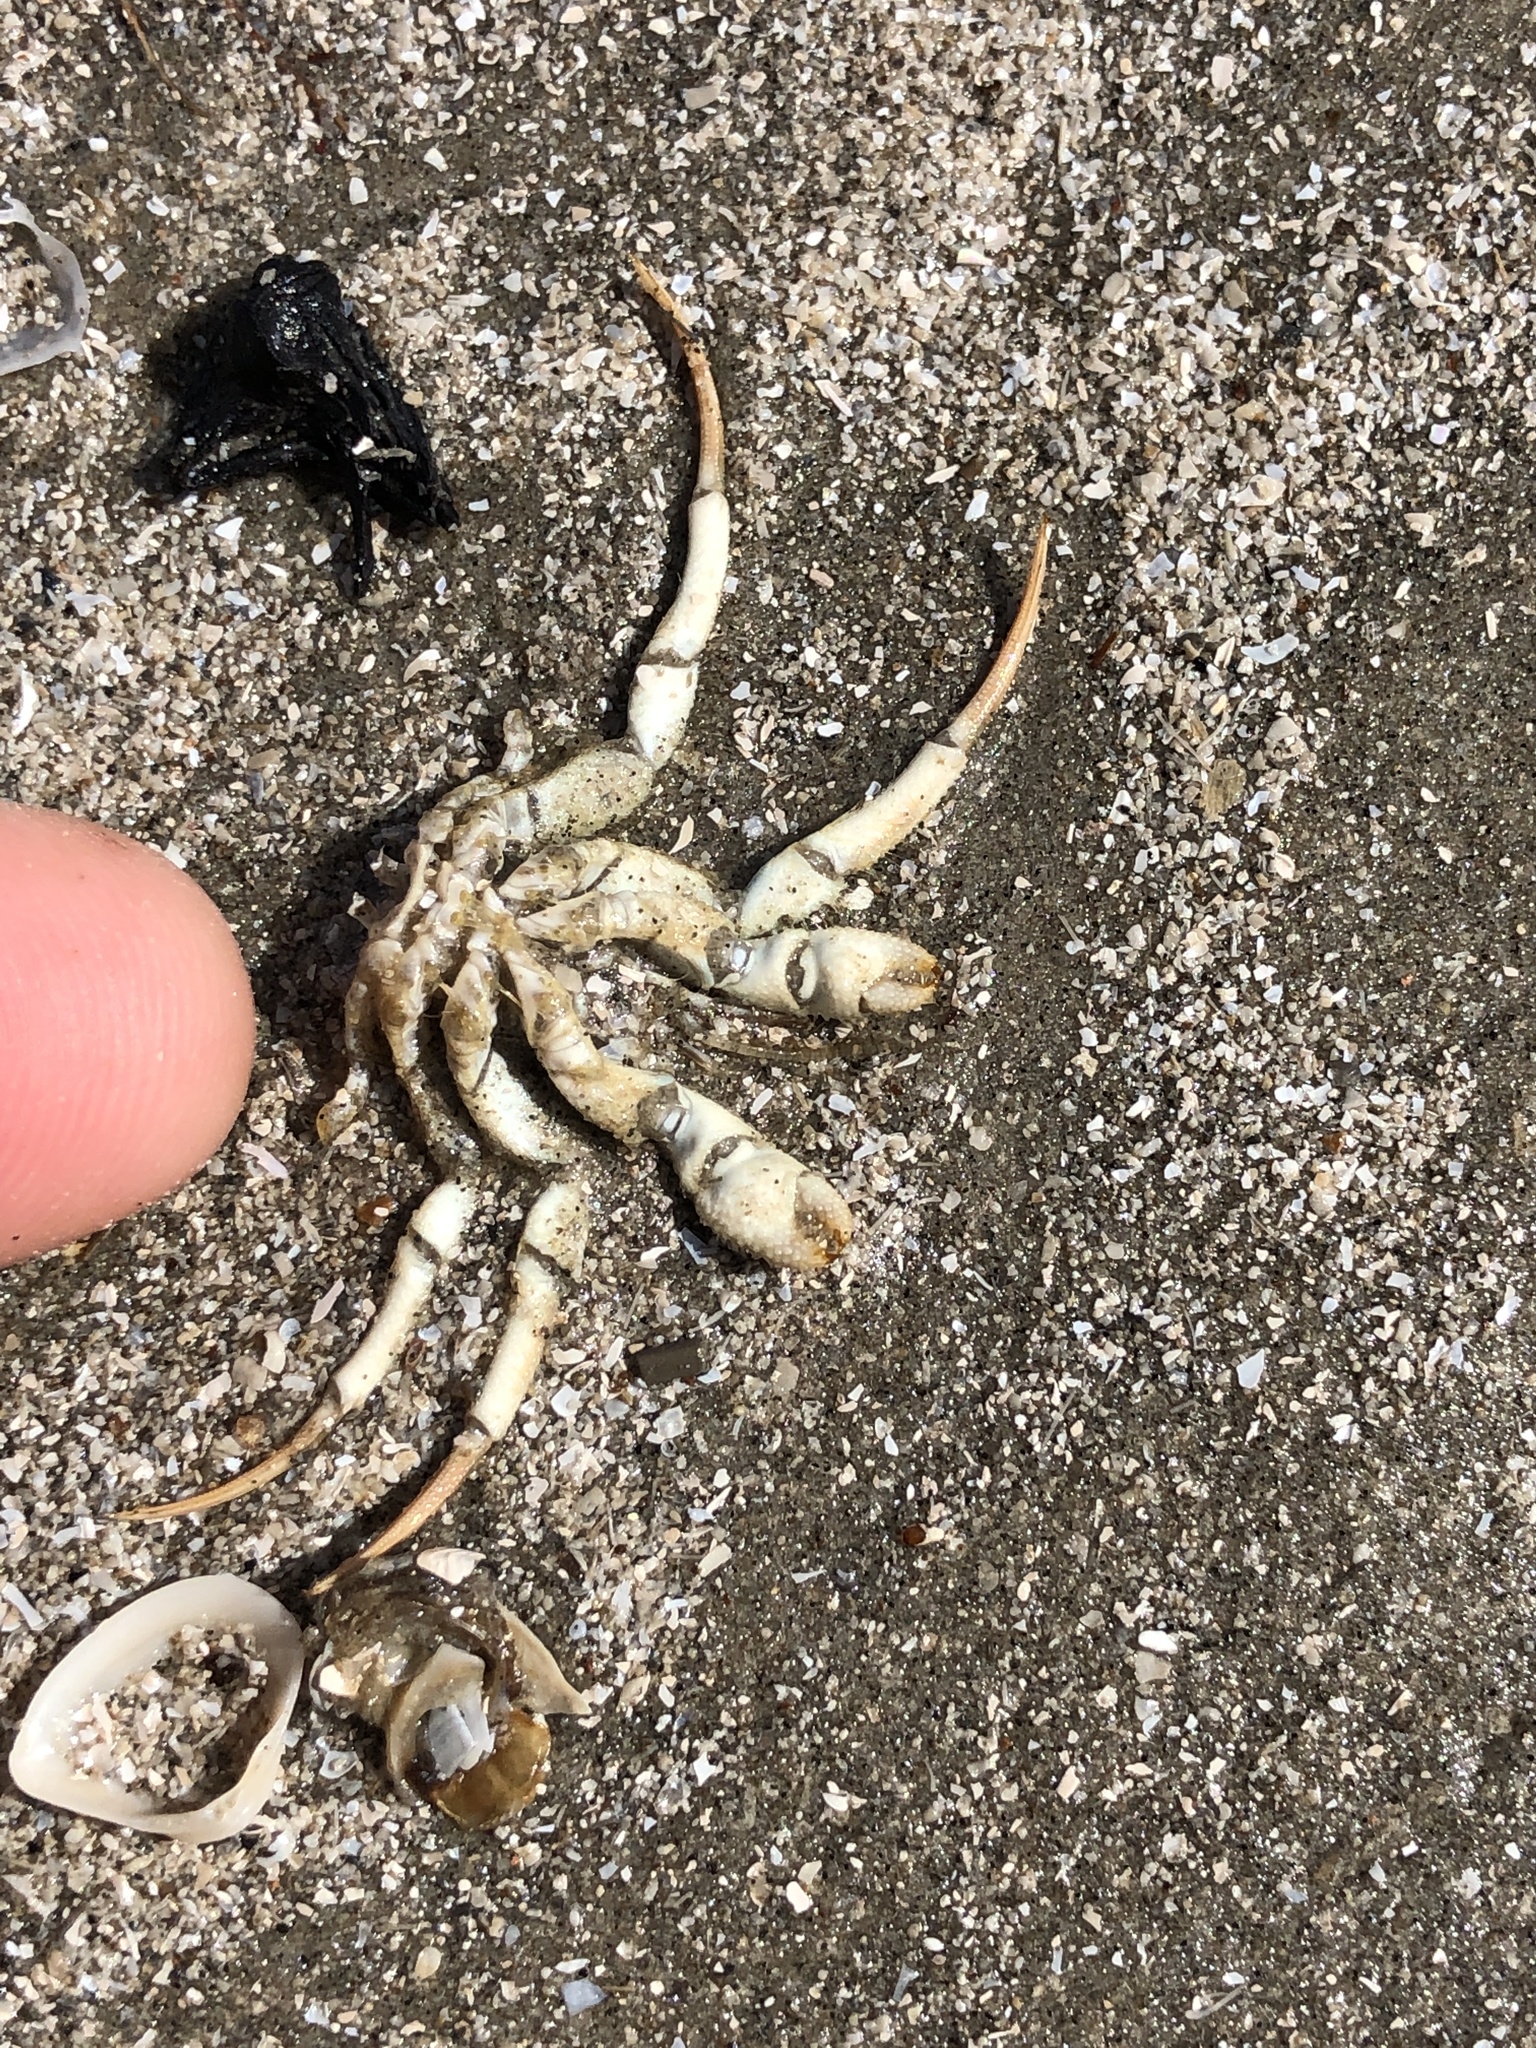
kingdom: Animalia
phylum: Arthropoda
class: Malacostraca
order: Decapoda
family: Diogenidae
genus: Isocheles
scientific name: Isocheles wurdemanni
